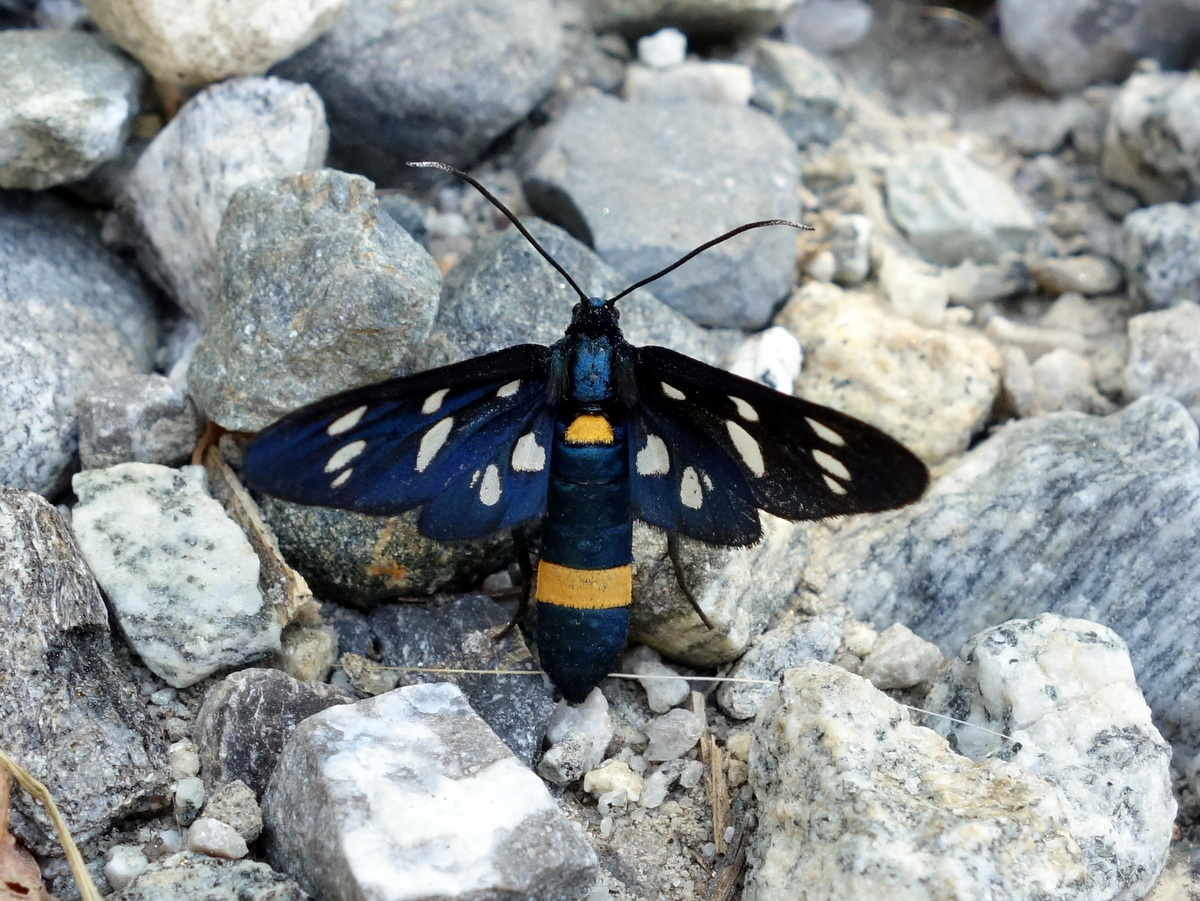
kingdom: Animalia
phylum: Arthropoda
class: Insecta
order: Lepidoptera
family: Erebidae
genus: Amata
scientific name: Amata phegea
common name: Nine-spotted
